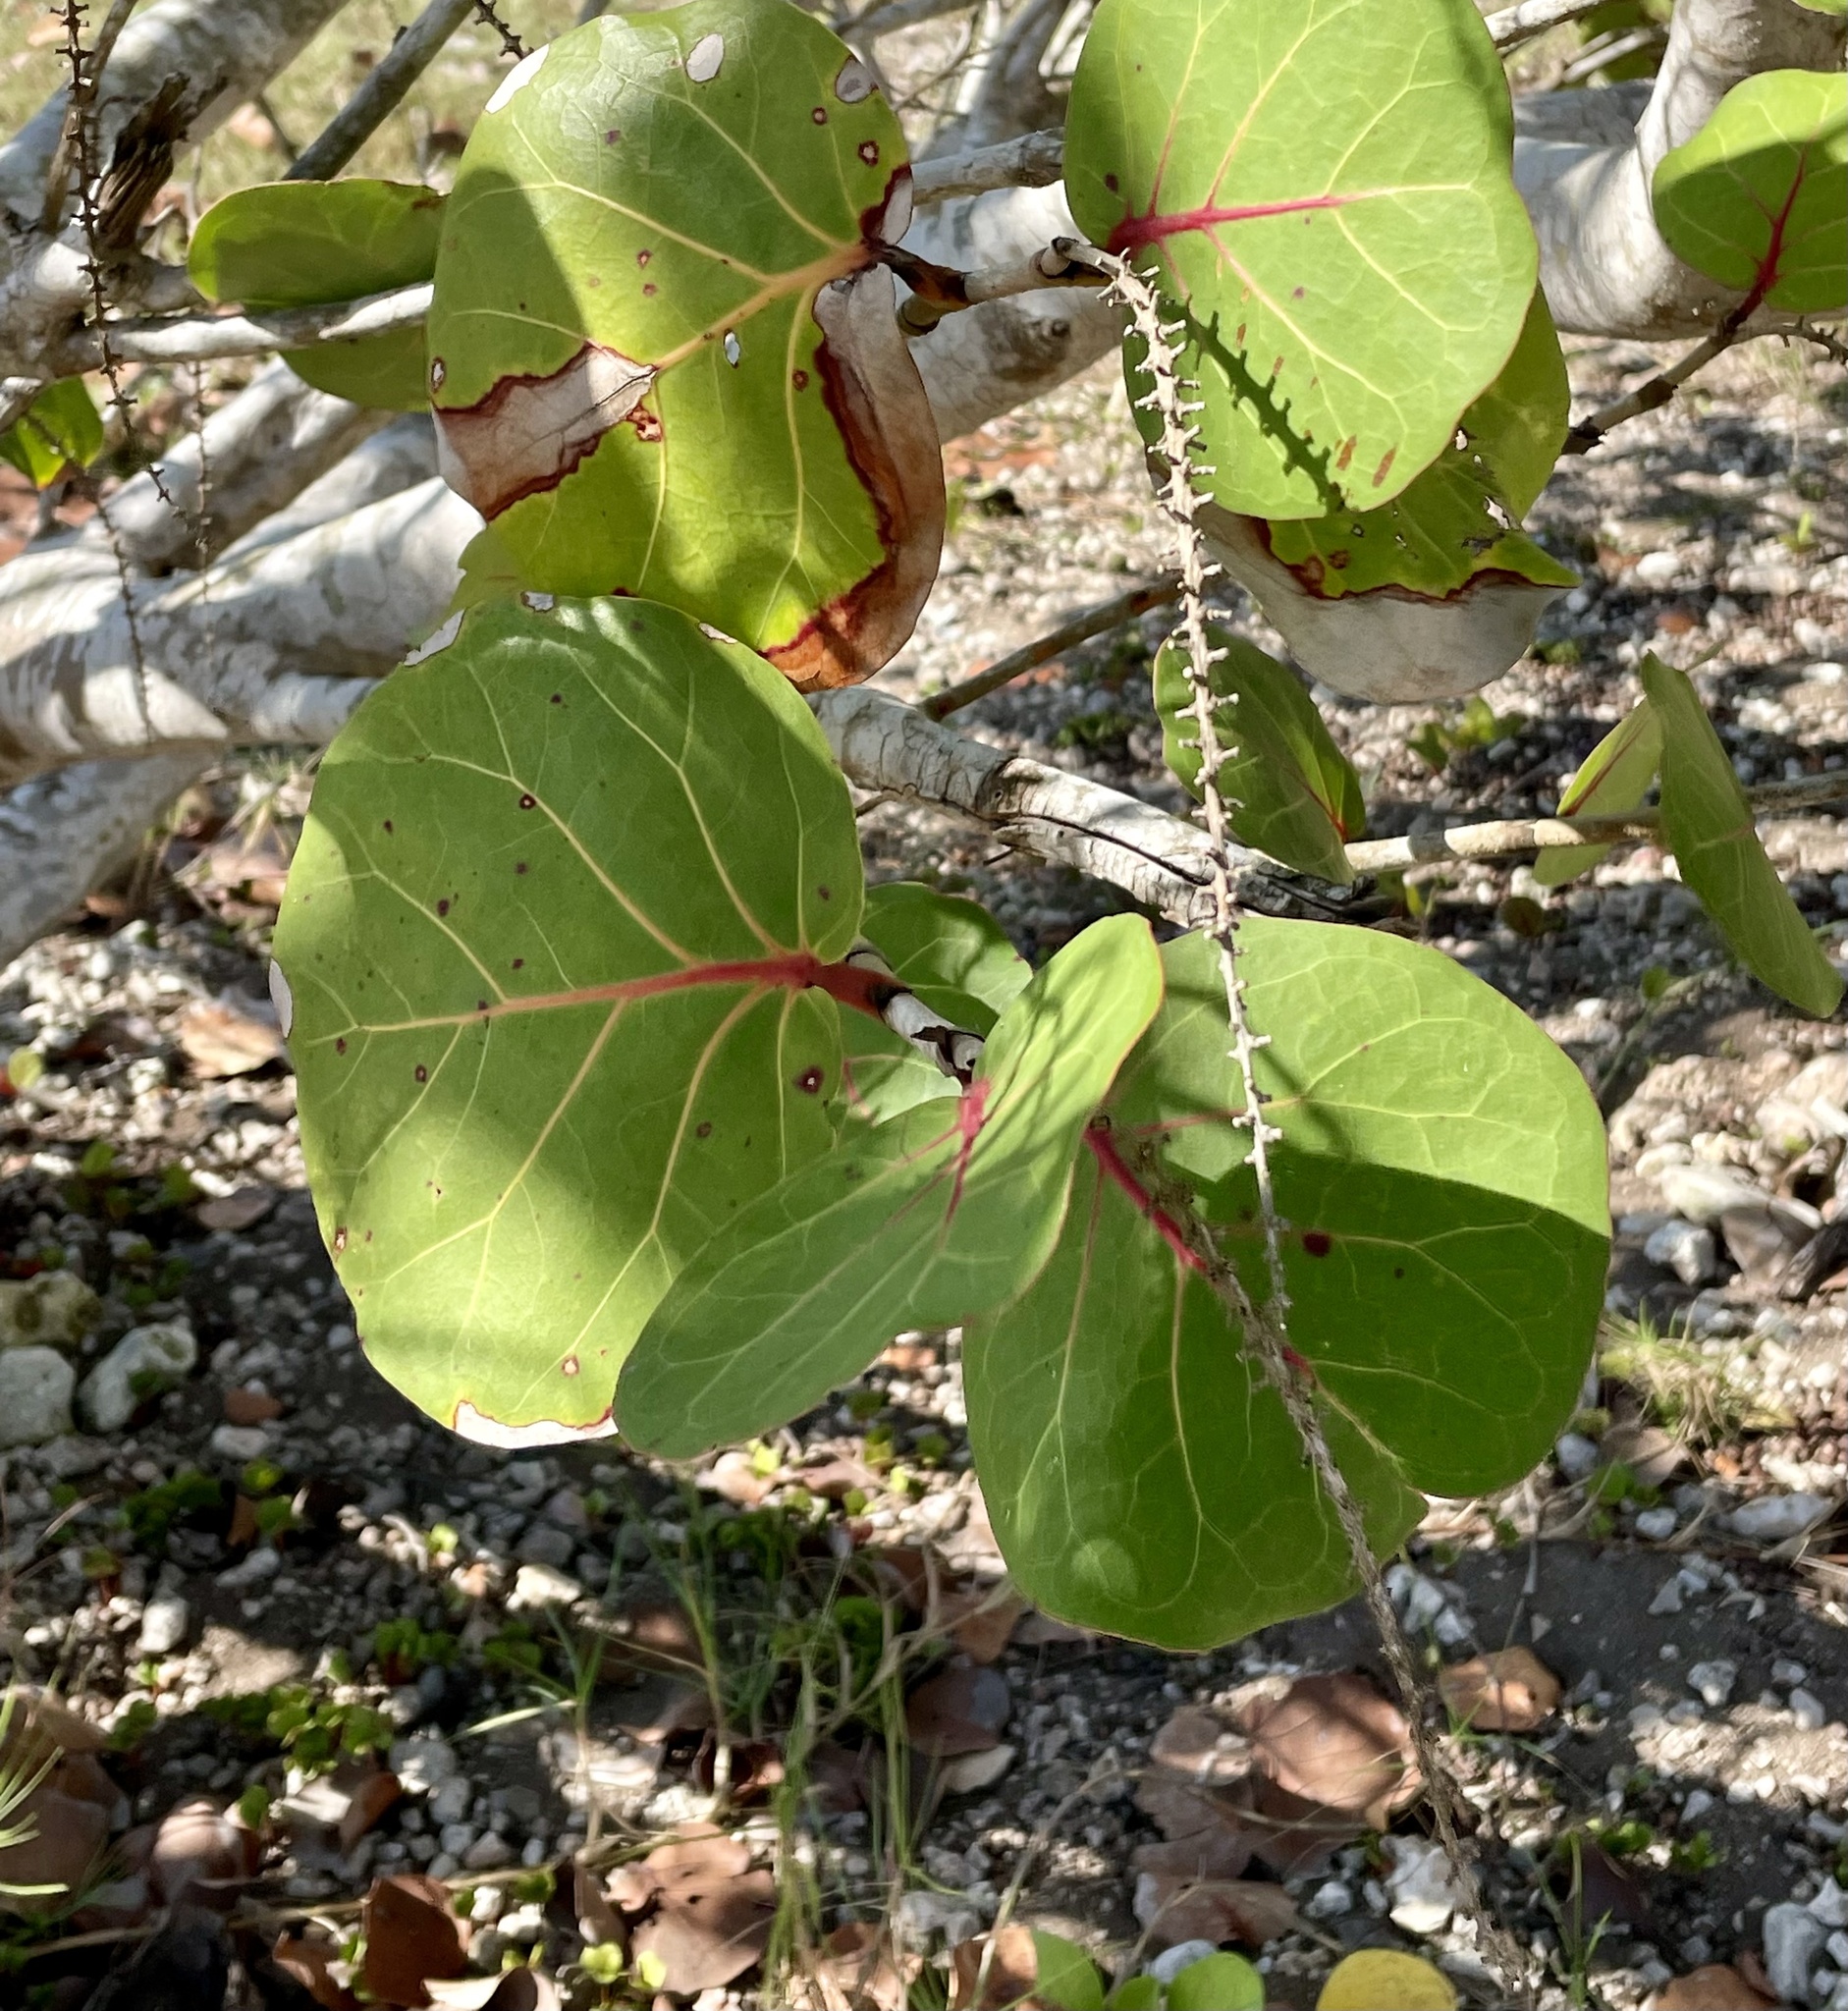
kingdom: Plantae
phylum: Tracheophyta
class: Magnoliopsida
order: Caryophyllales
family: Polygonaceae
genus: Coccoloba
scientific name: Coccoloba uvifera
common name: Seagrape
